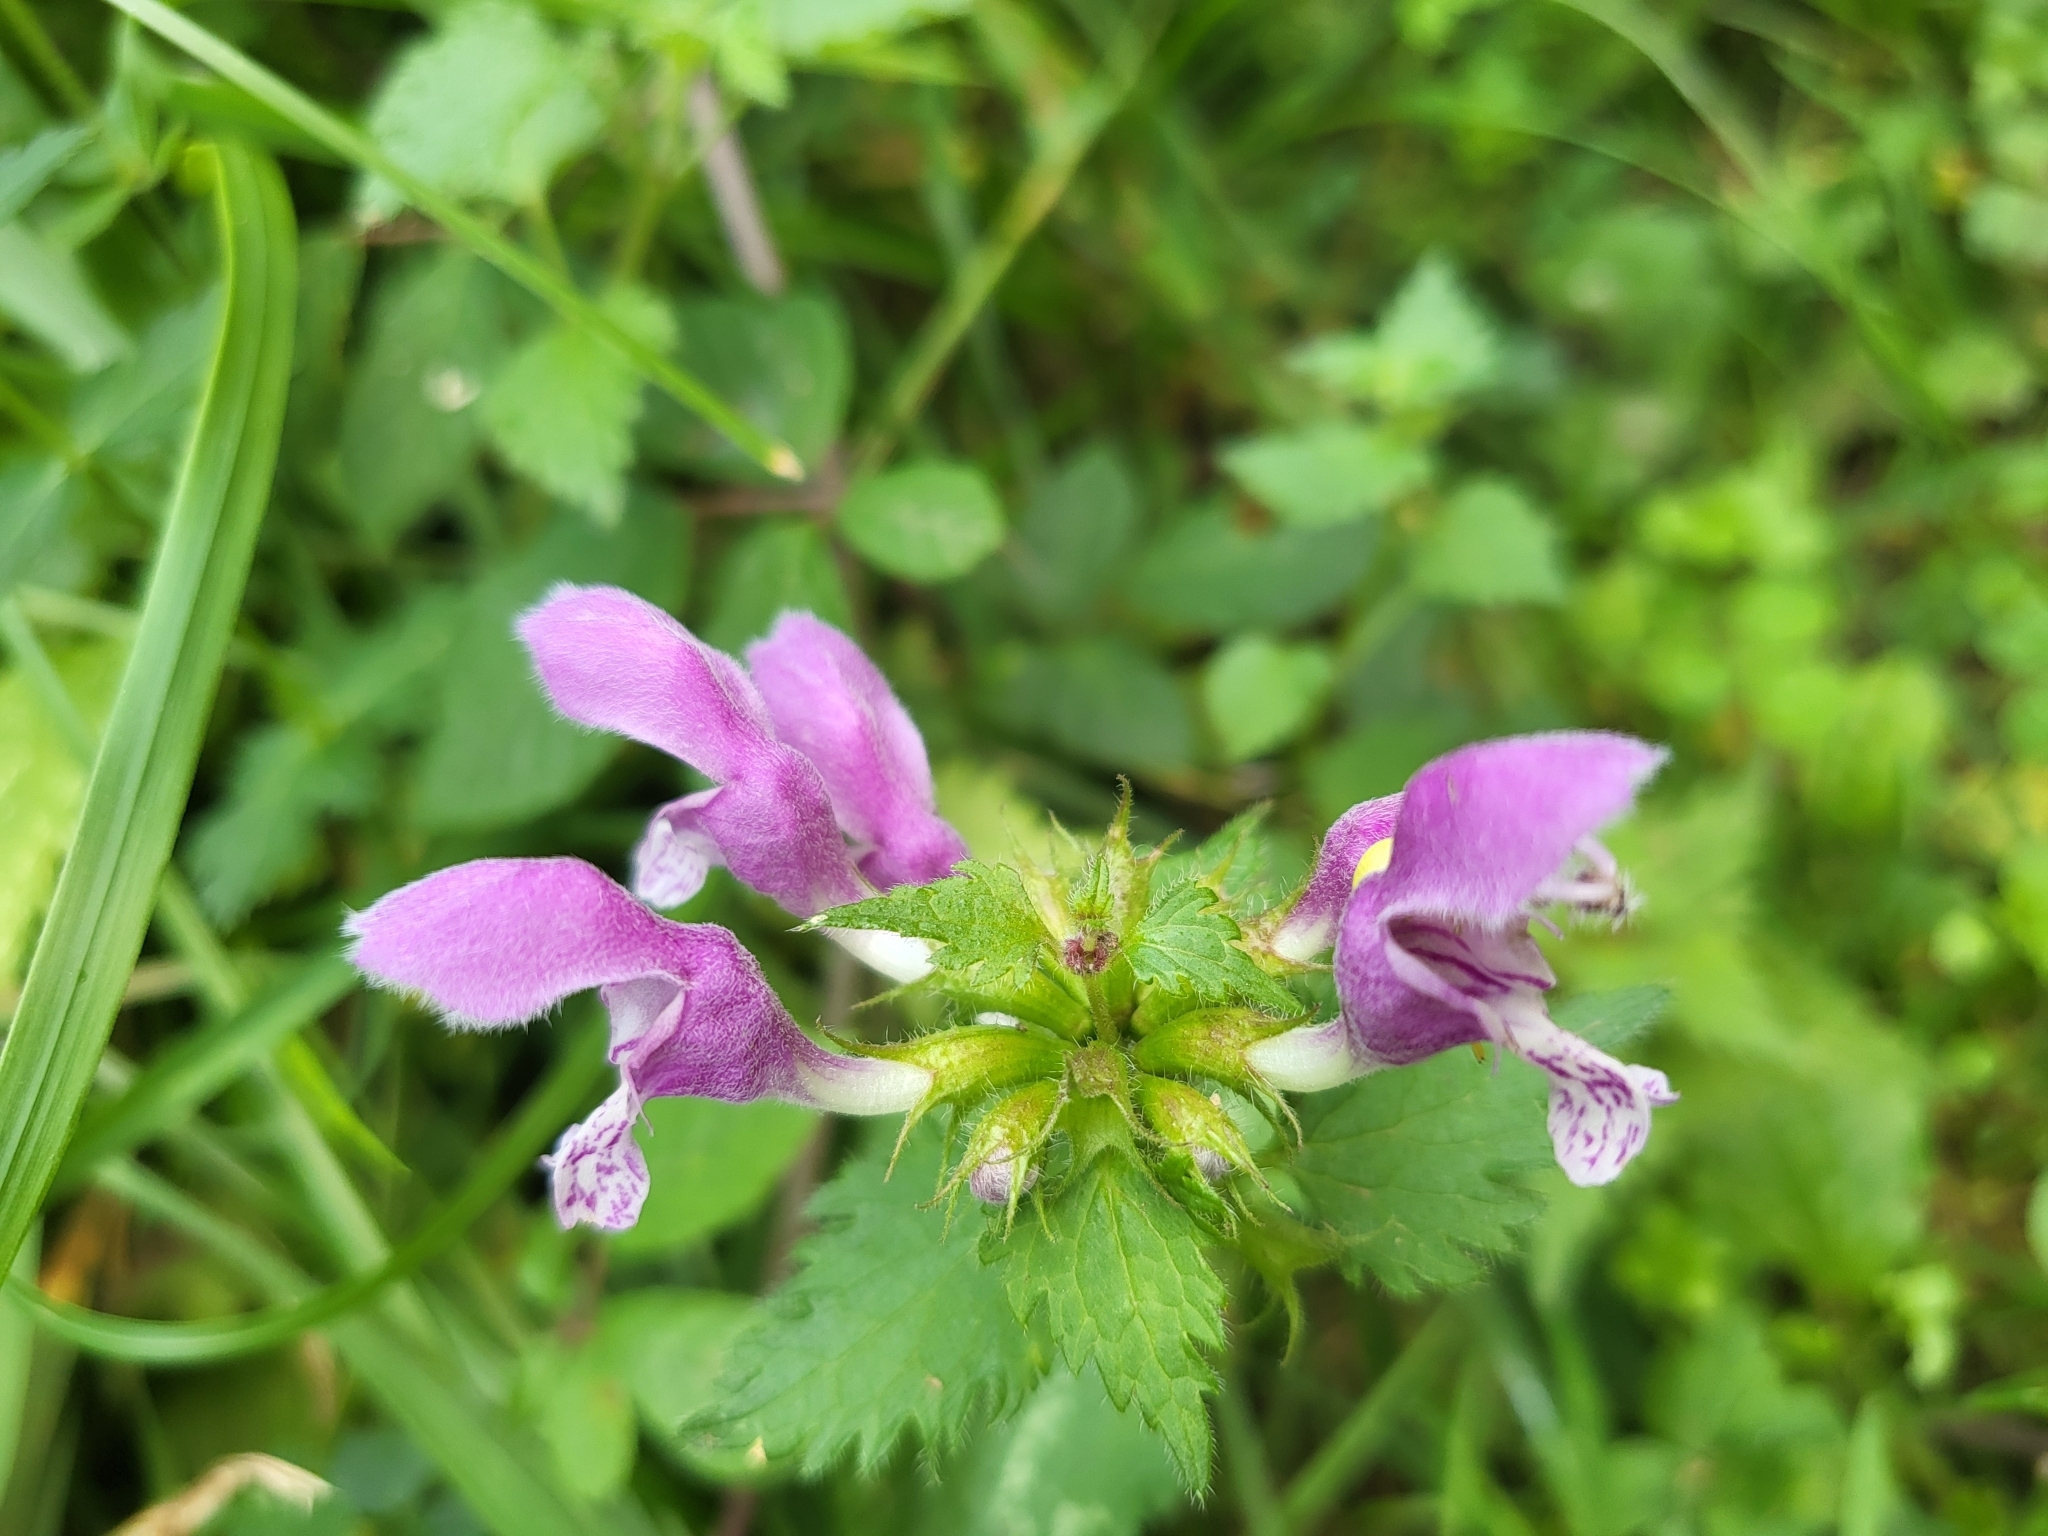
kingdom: Plantae
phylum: Tracheophyta
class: Magnoliopsida
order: Lamiales
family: Lamiaceae
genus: Lamium
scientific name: Lamium maculatum
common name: Spotted dead-nettle
